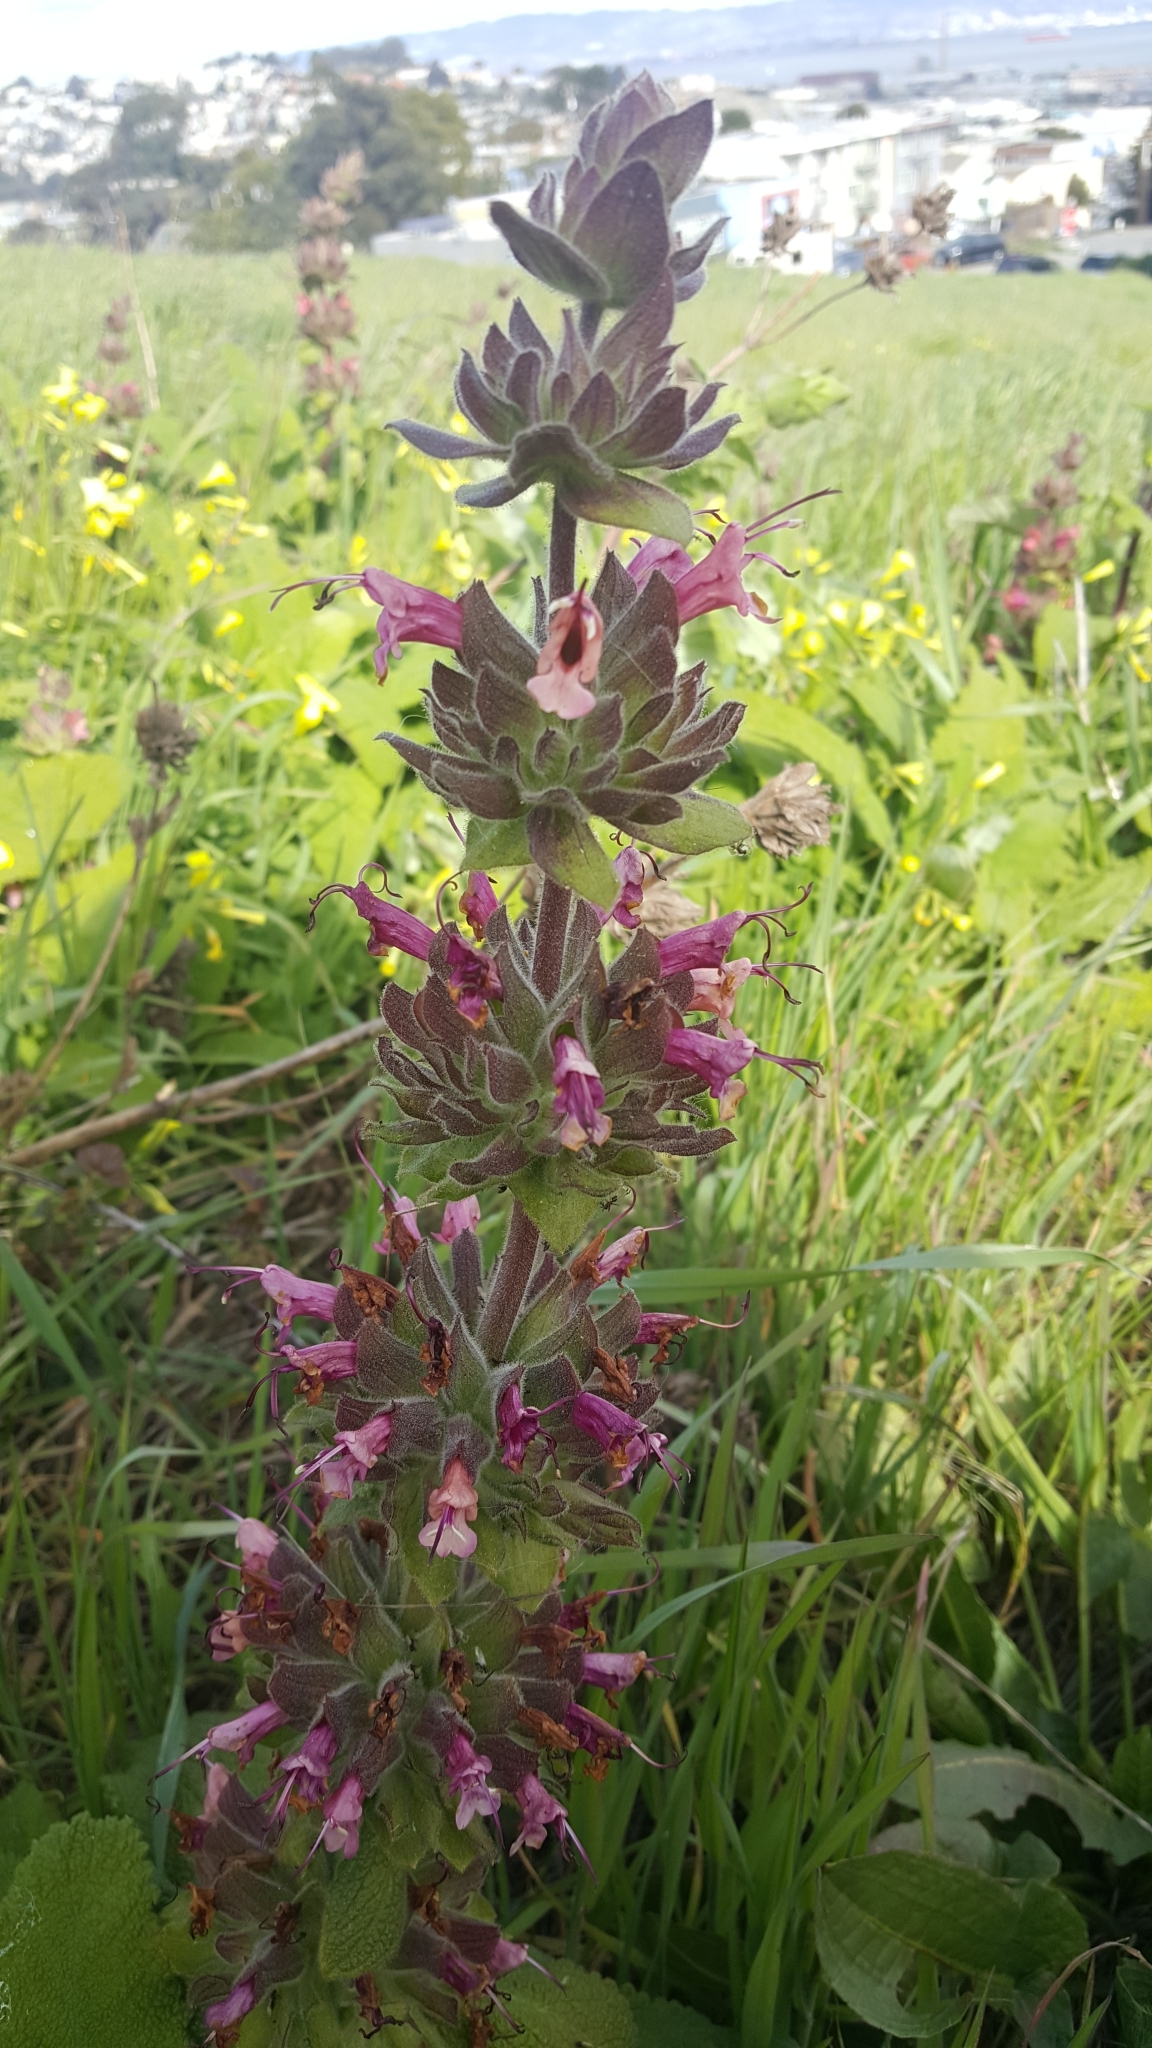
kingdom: Plantae
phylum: Tracheophyta
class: Magnoliopsida
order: Lamiales
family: Lamiaceae
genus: Salvia
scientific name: Salvia spathacea
